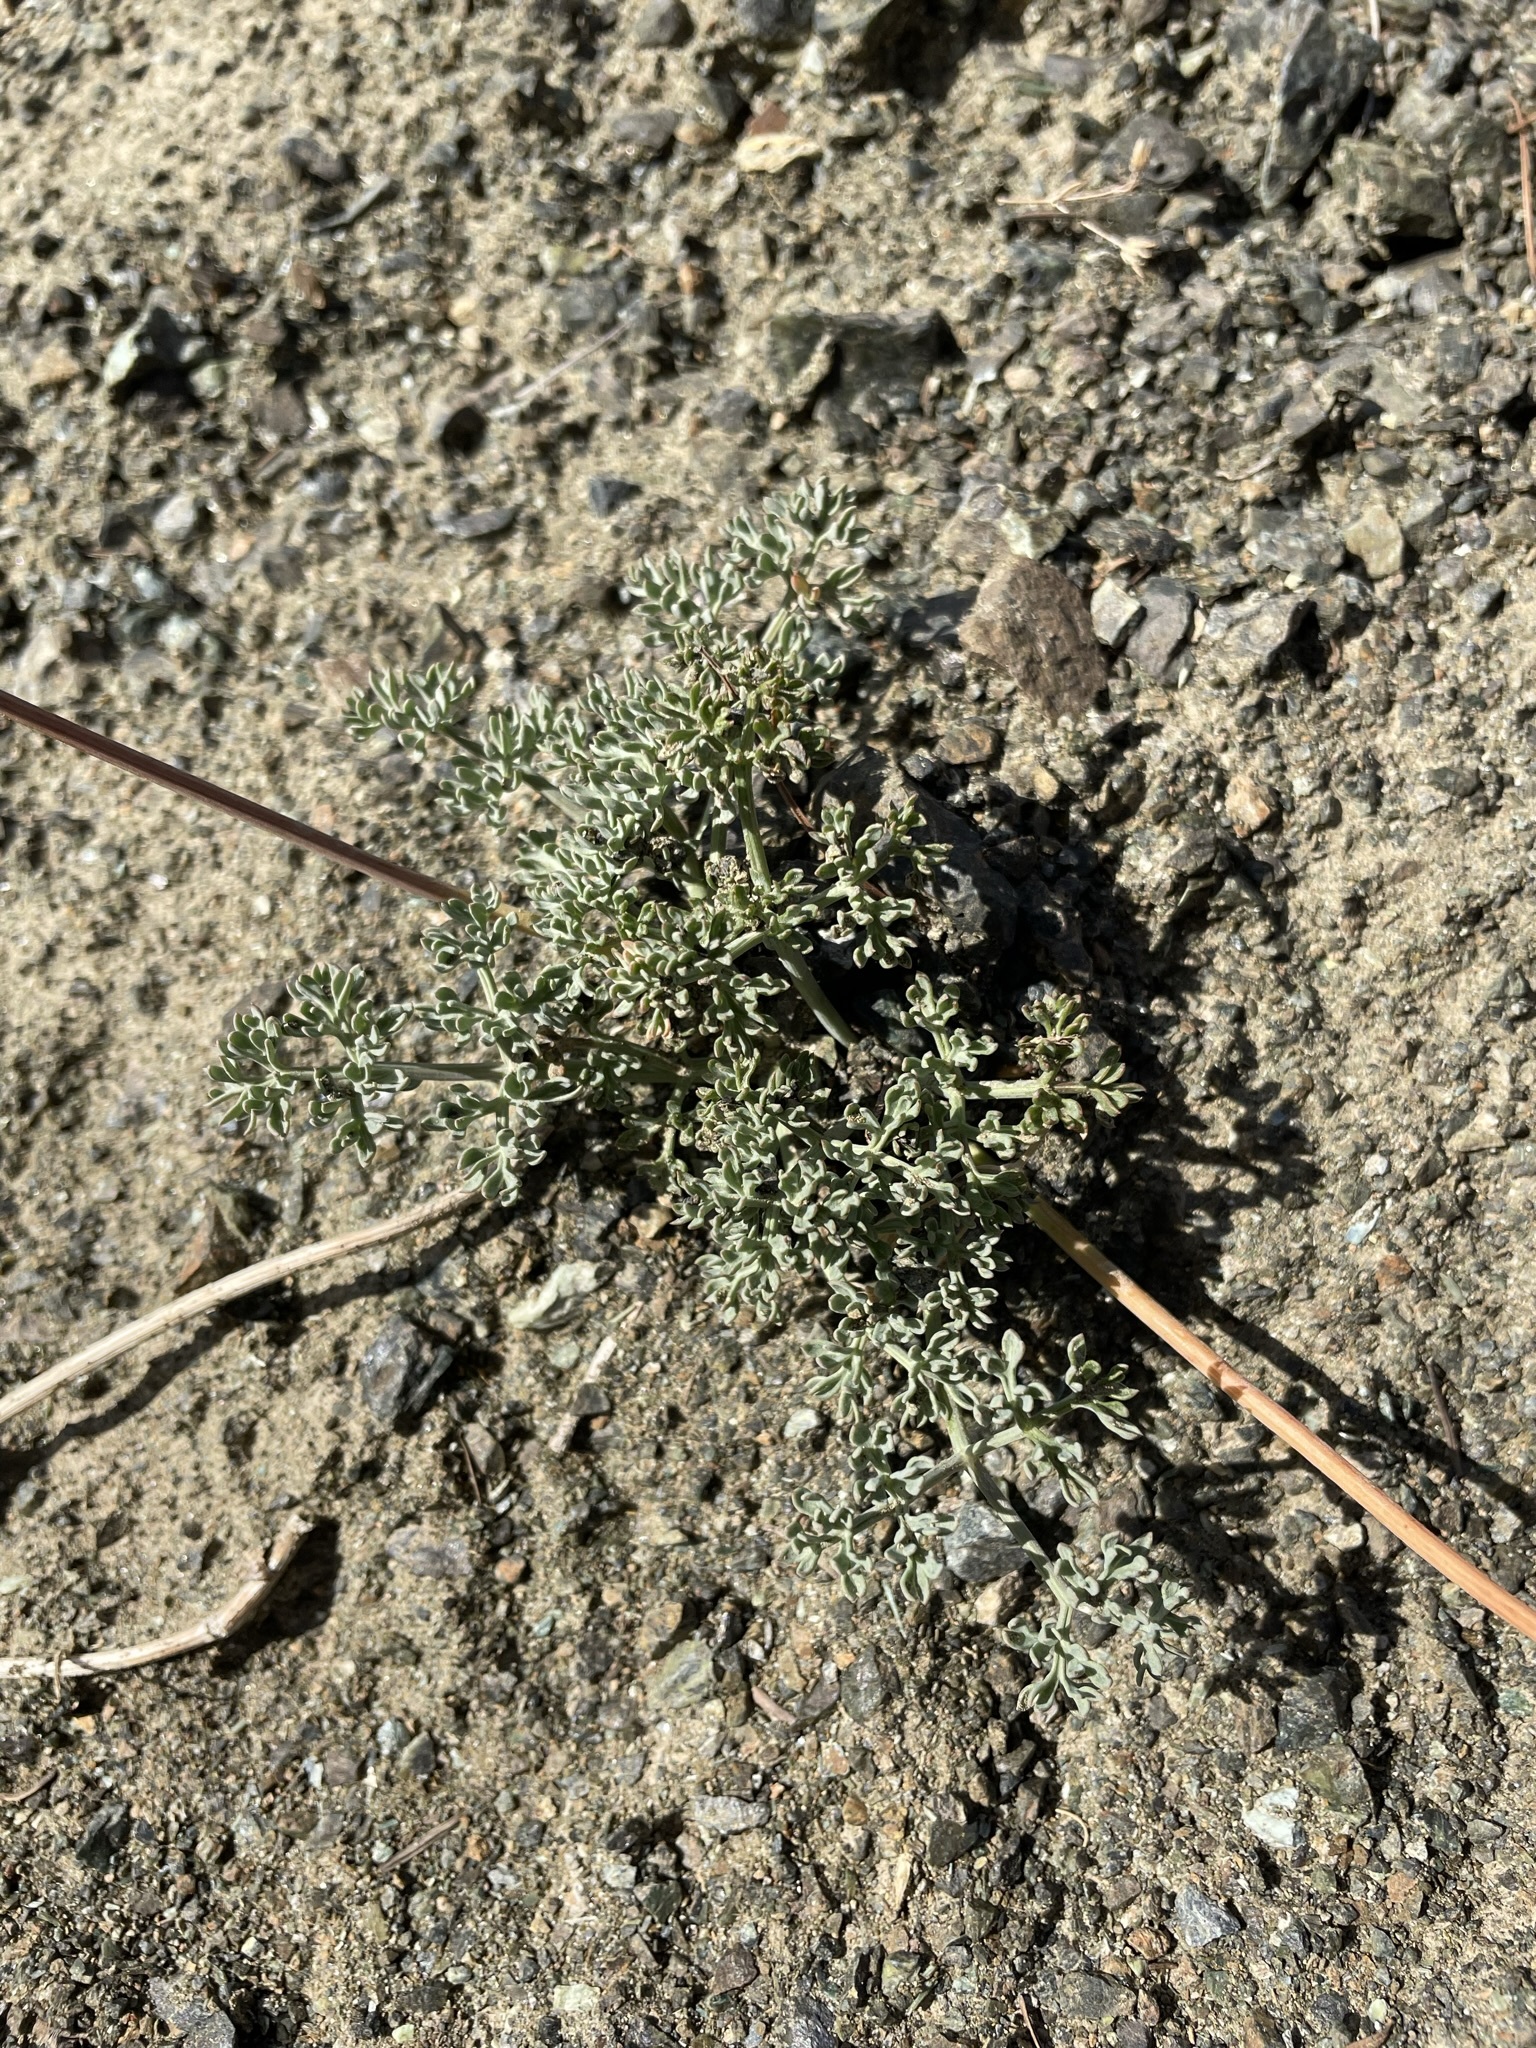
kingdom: Plantae
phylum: Tracheophyta
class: Magnoliopsida
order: Apiales
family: Apiaceae
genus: Lomatium
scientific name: Lomatium cuspidatum
